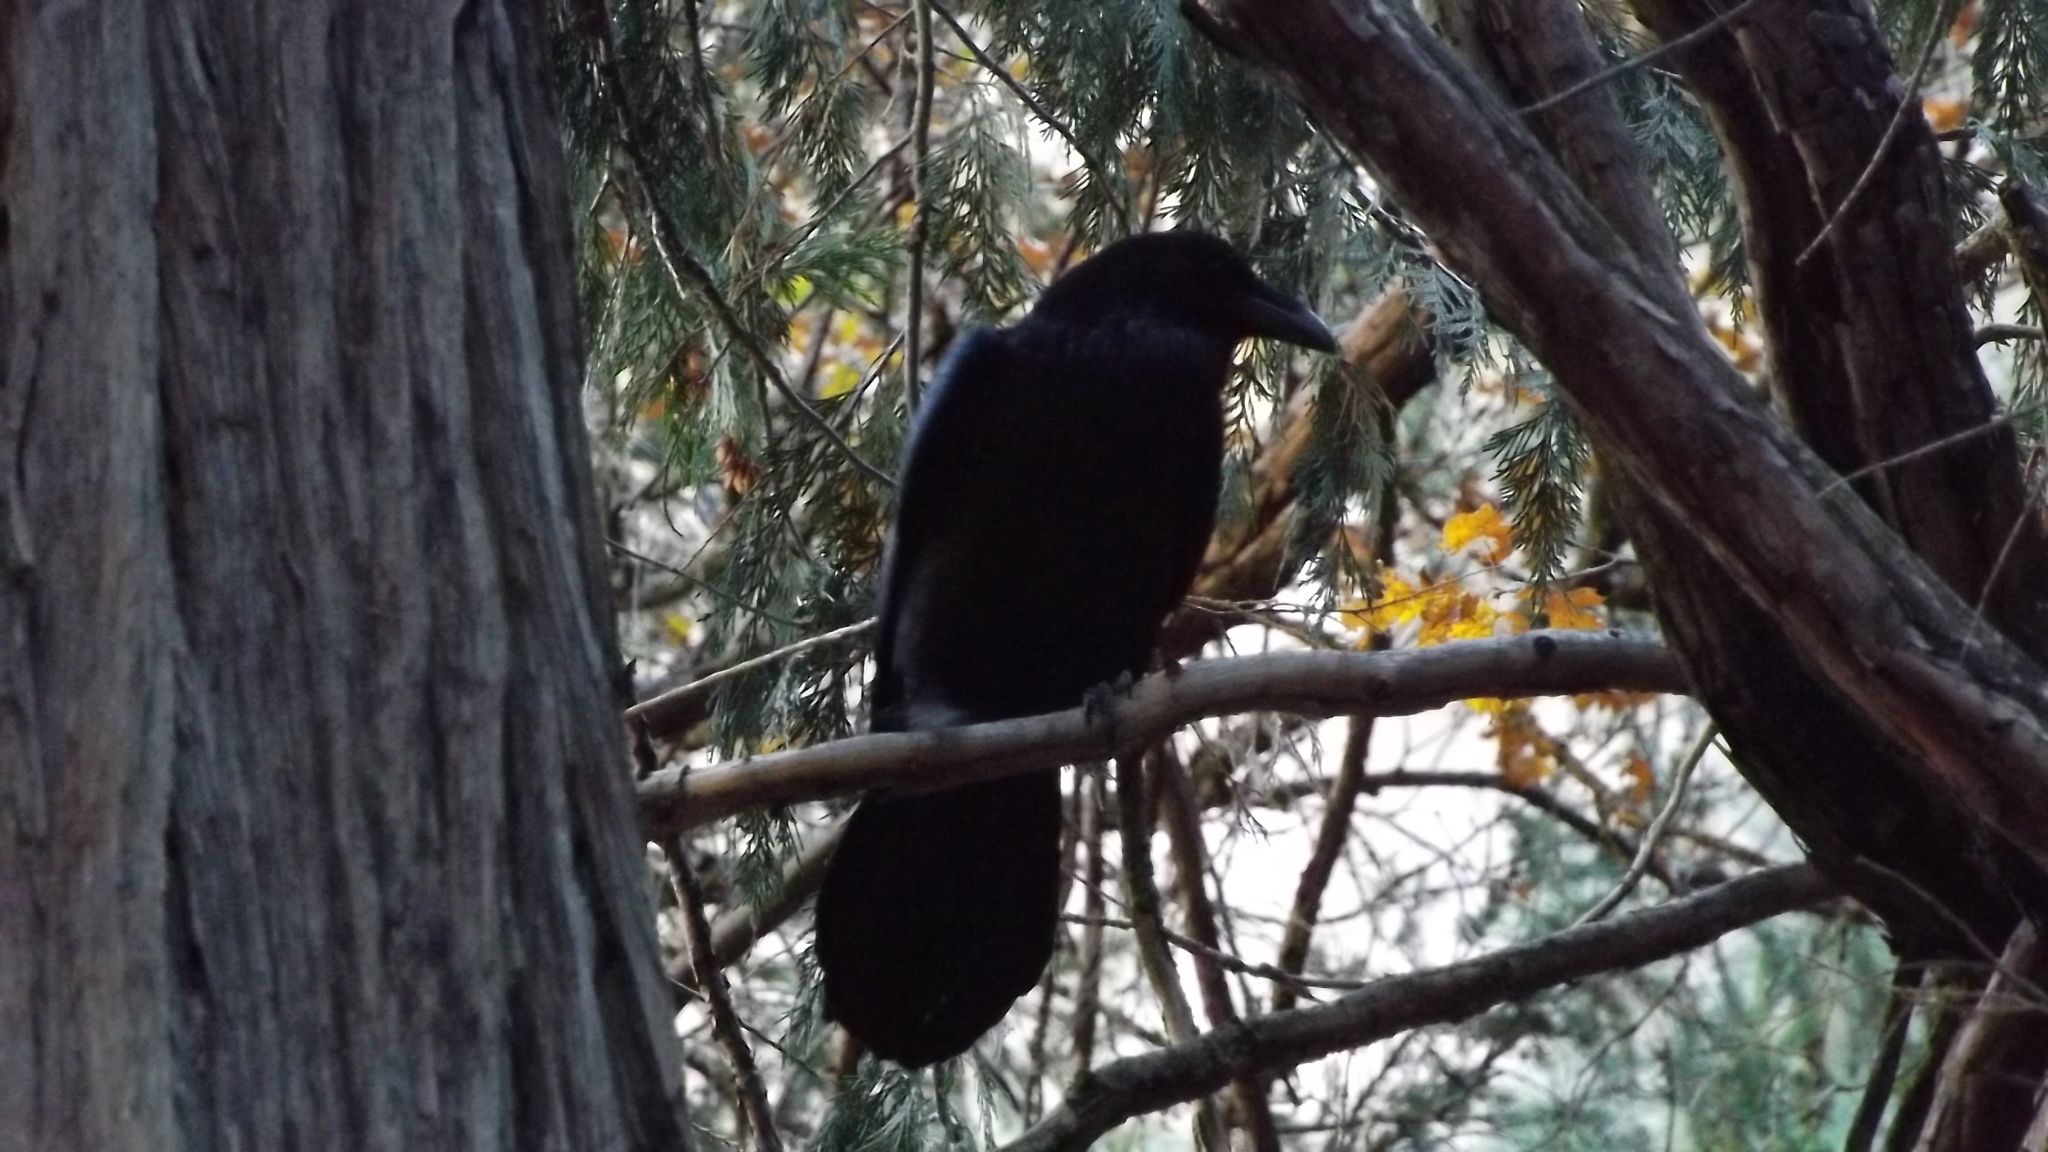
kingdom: Animalia
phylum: Chordata
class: Aves
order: Passeriformes
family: Corvidae
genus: Corvus
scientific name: Corvus corax
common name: Common raven
